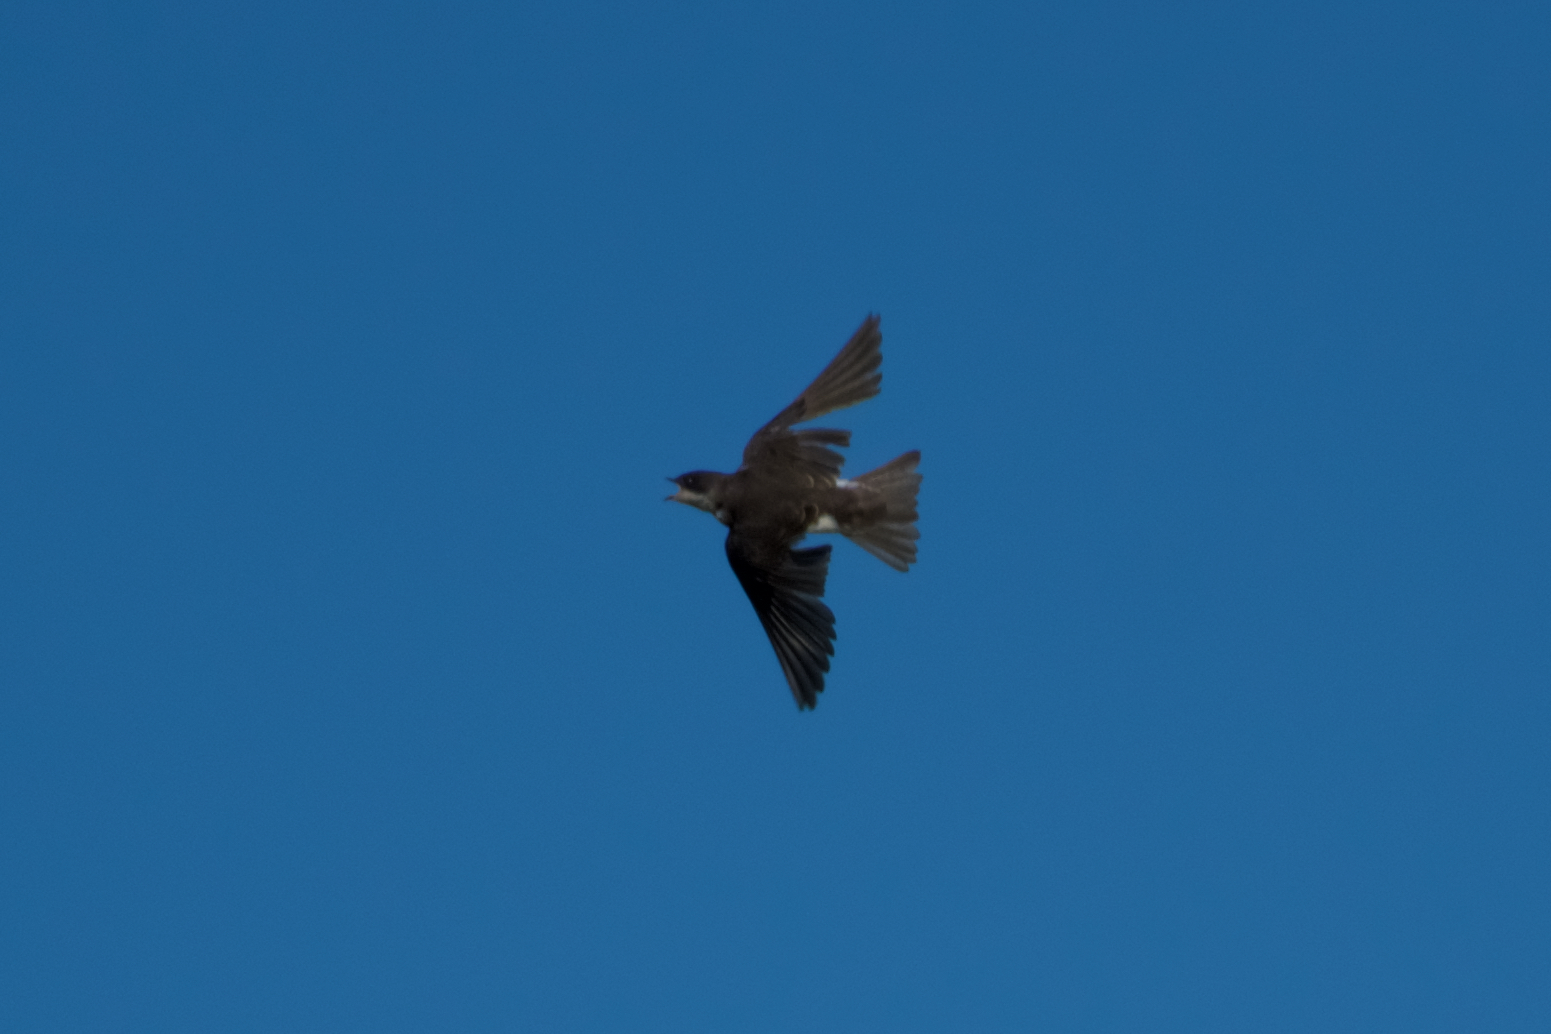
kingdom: Animalia
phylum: Chordata
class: Aves
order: Passeriformes
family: Hirundinidae
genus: Tachycineta
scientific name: Tachycineta bicolor
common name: Tree swallow
